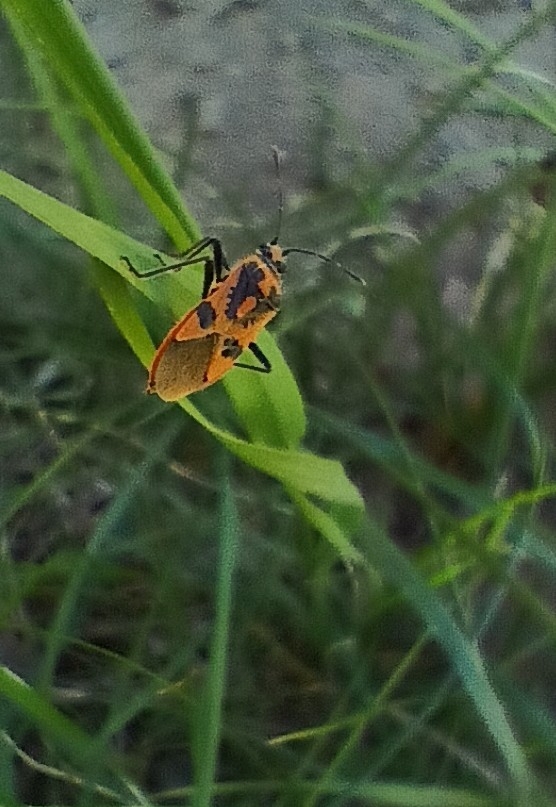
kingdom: Animalia
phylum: Arthropoda
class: Insecta
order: Hemiptera
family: Rhopalidae
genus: Corizus
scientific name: Corizus hyoscyami
